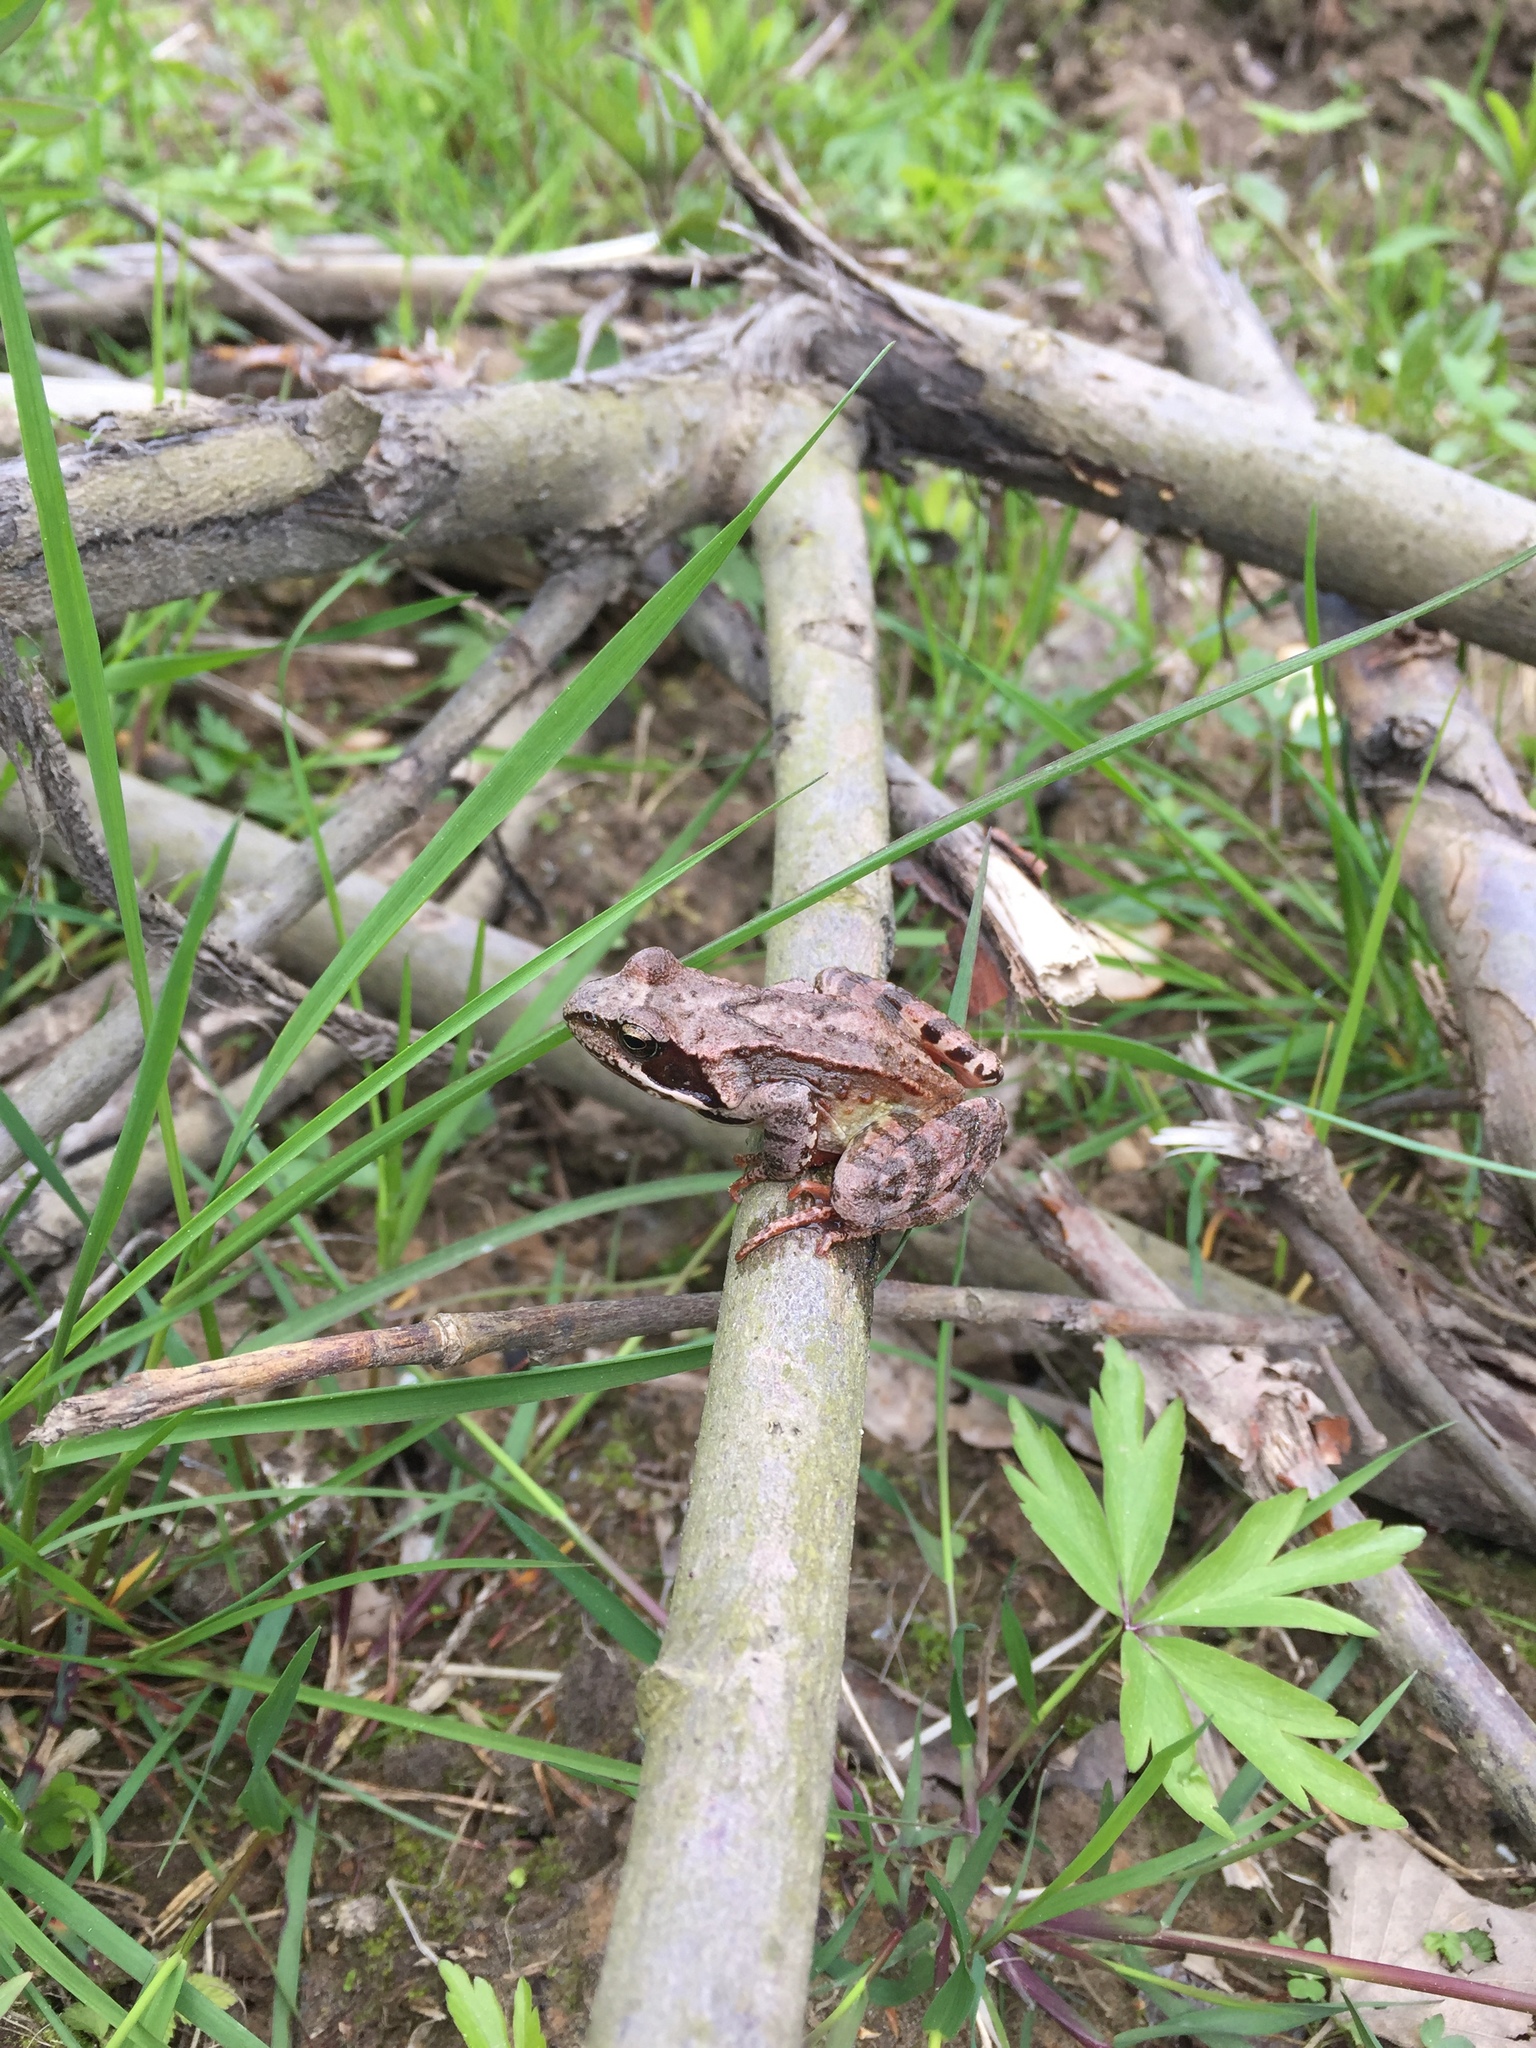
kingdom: Animalia
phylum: Chordata
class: Amphibia
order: Anura
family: Ranidae
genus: Rana
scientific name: Rana temporaria
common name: Common frog
